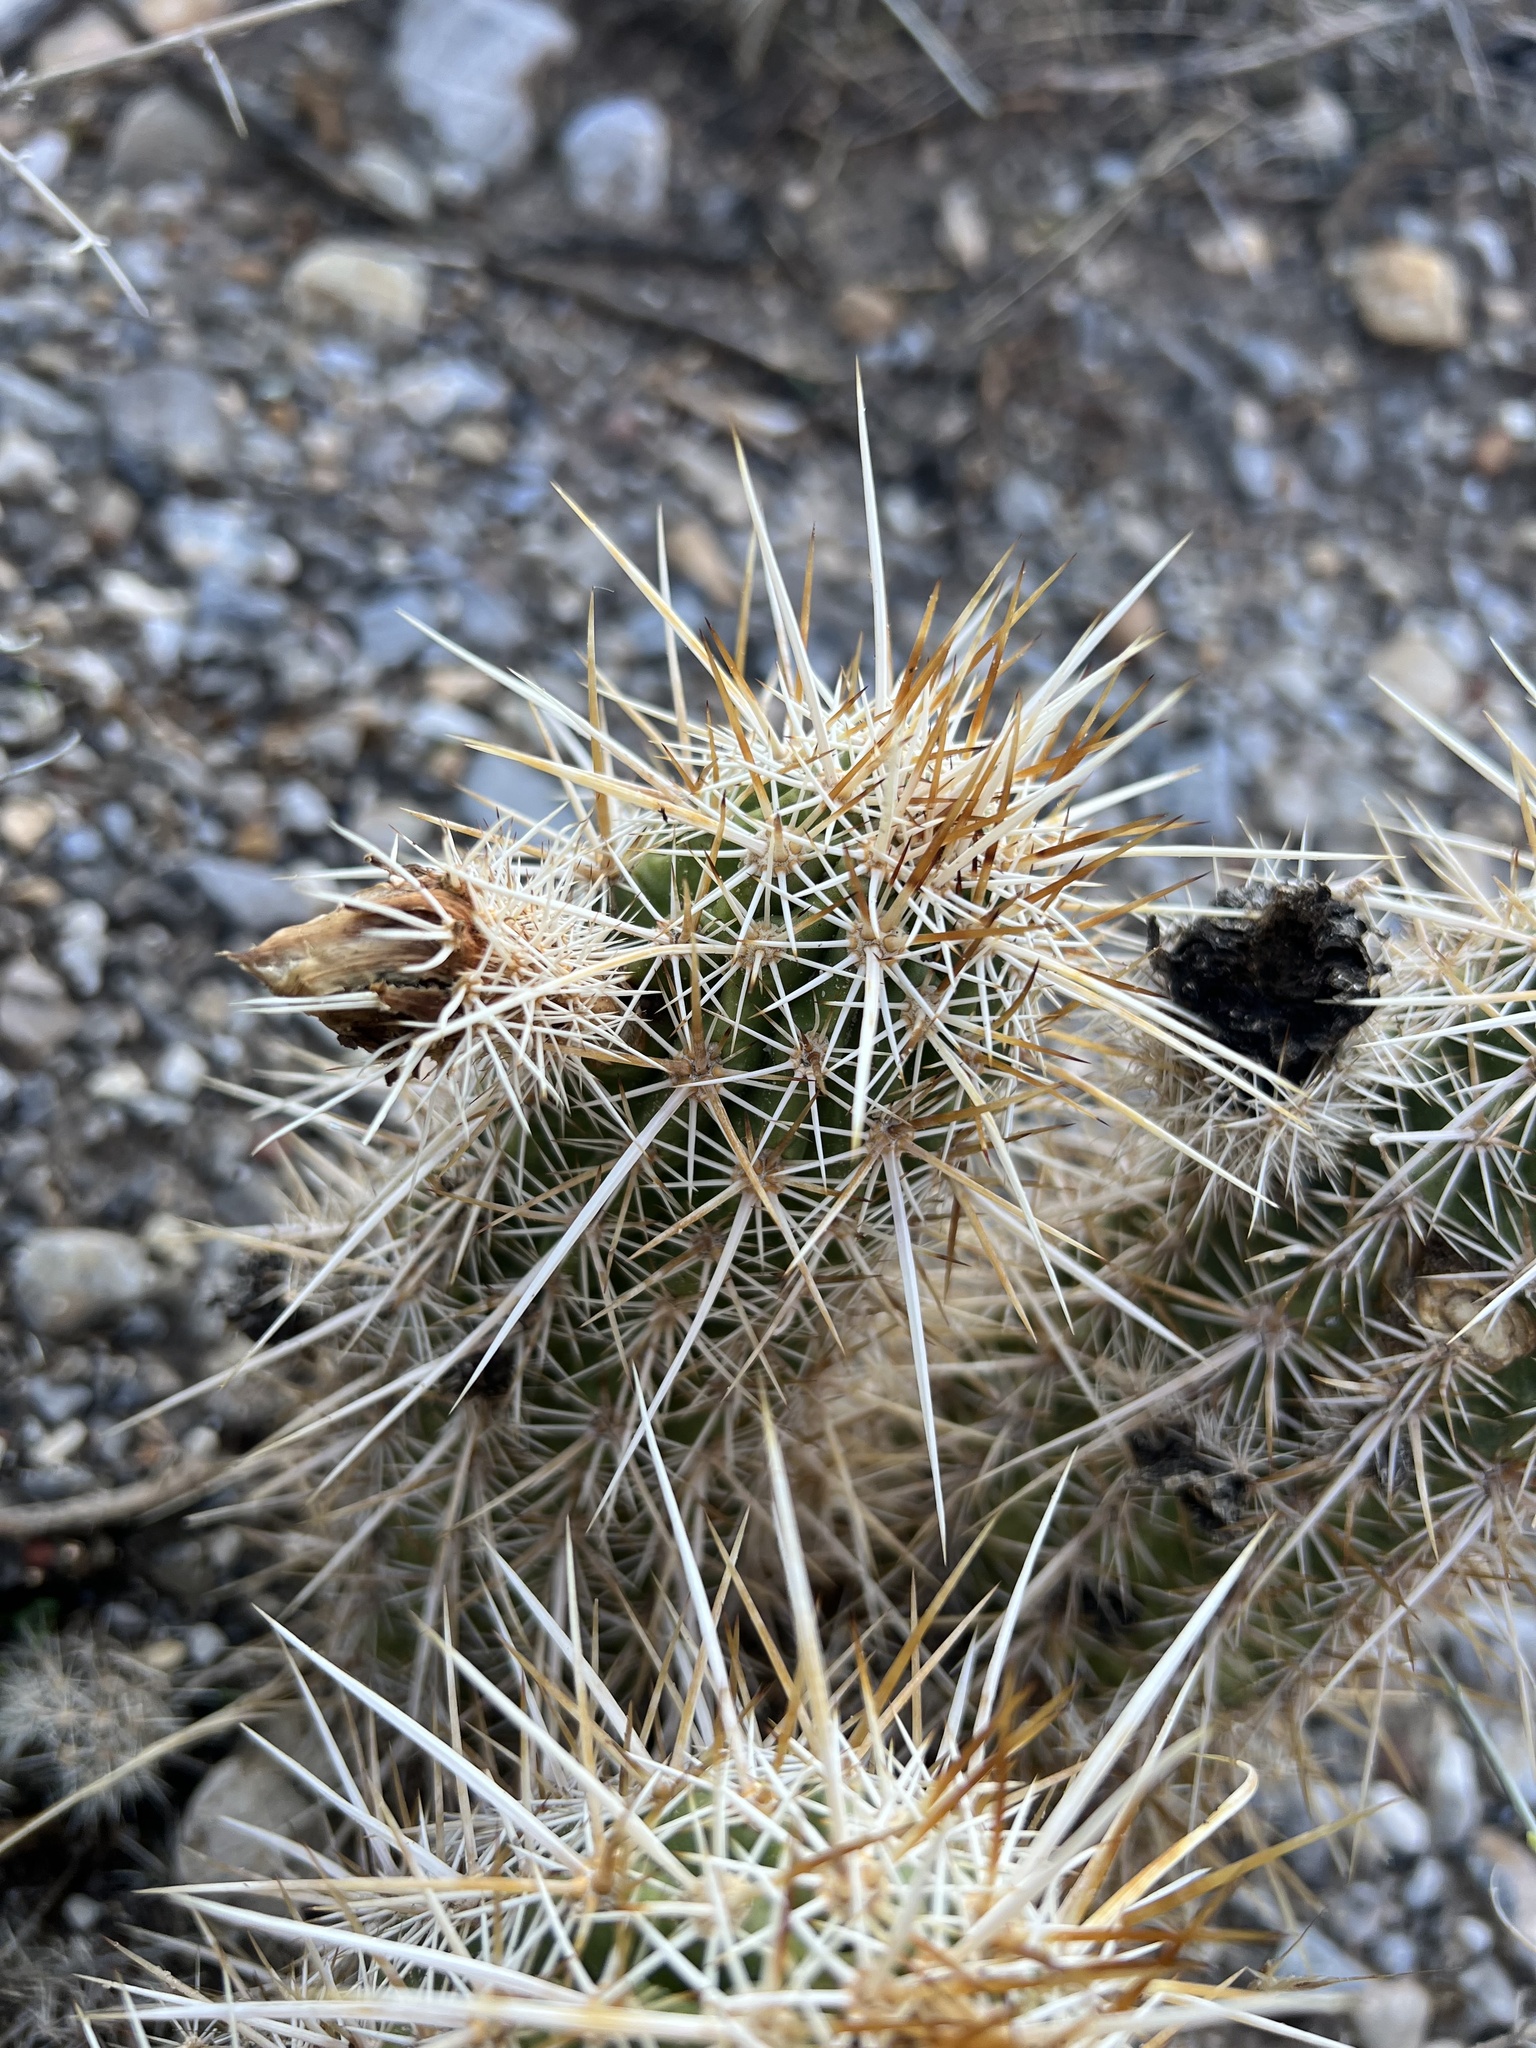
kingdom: Plantae
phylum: Tracheophyta
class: Magnoliopsida
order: Caryophyllales
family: Cactaceae
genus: Echinocereus
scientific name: Echinocereus engelmannii
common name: Engelmann's hedgehog cactus
